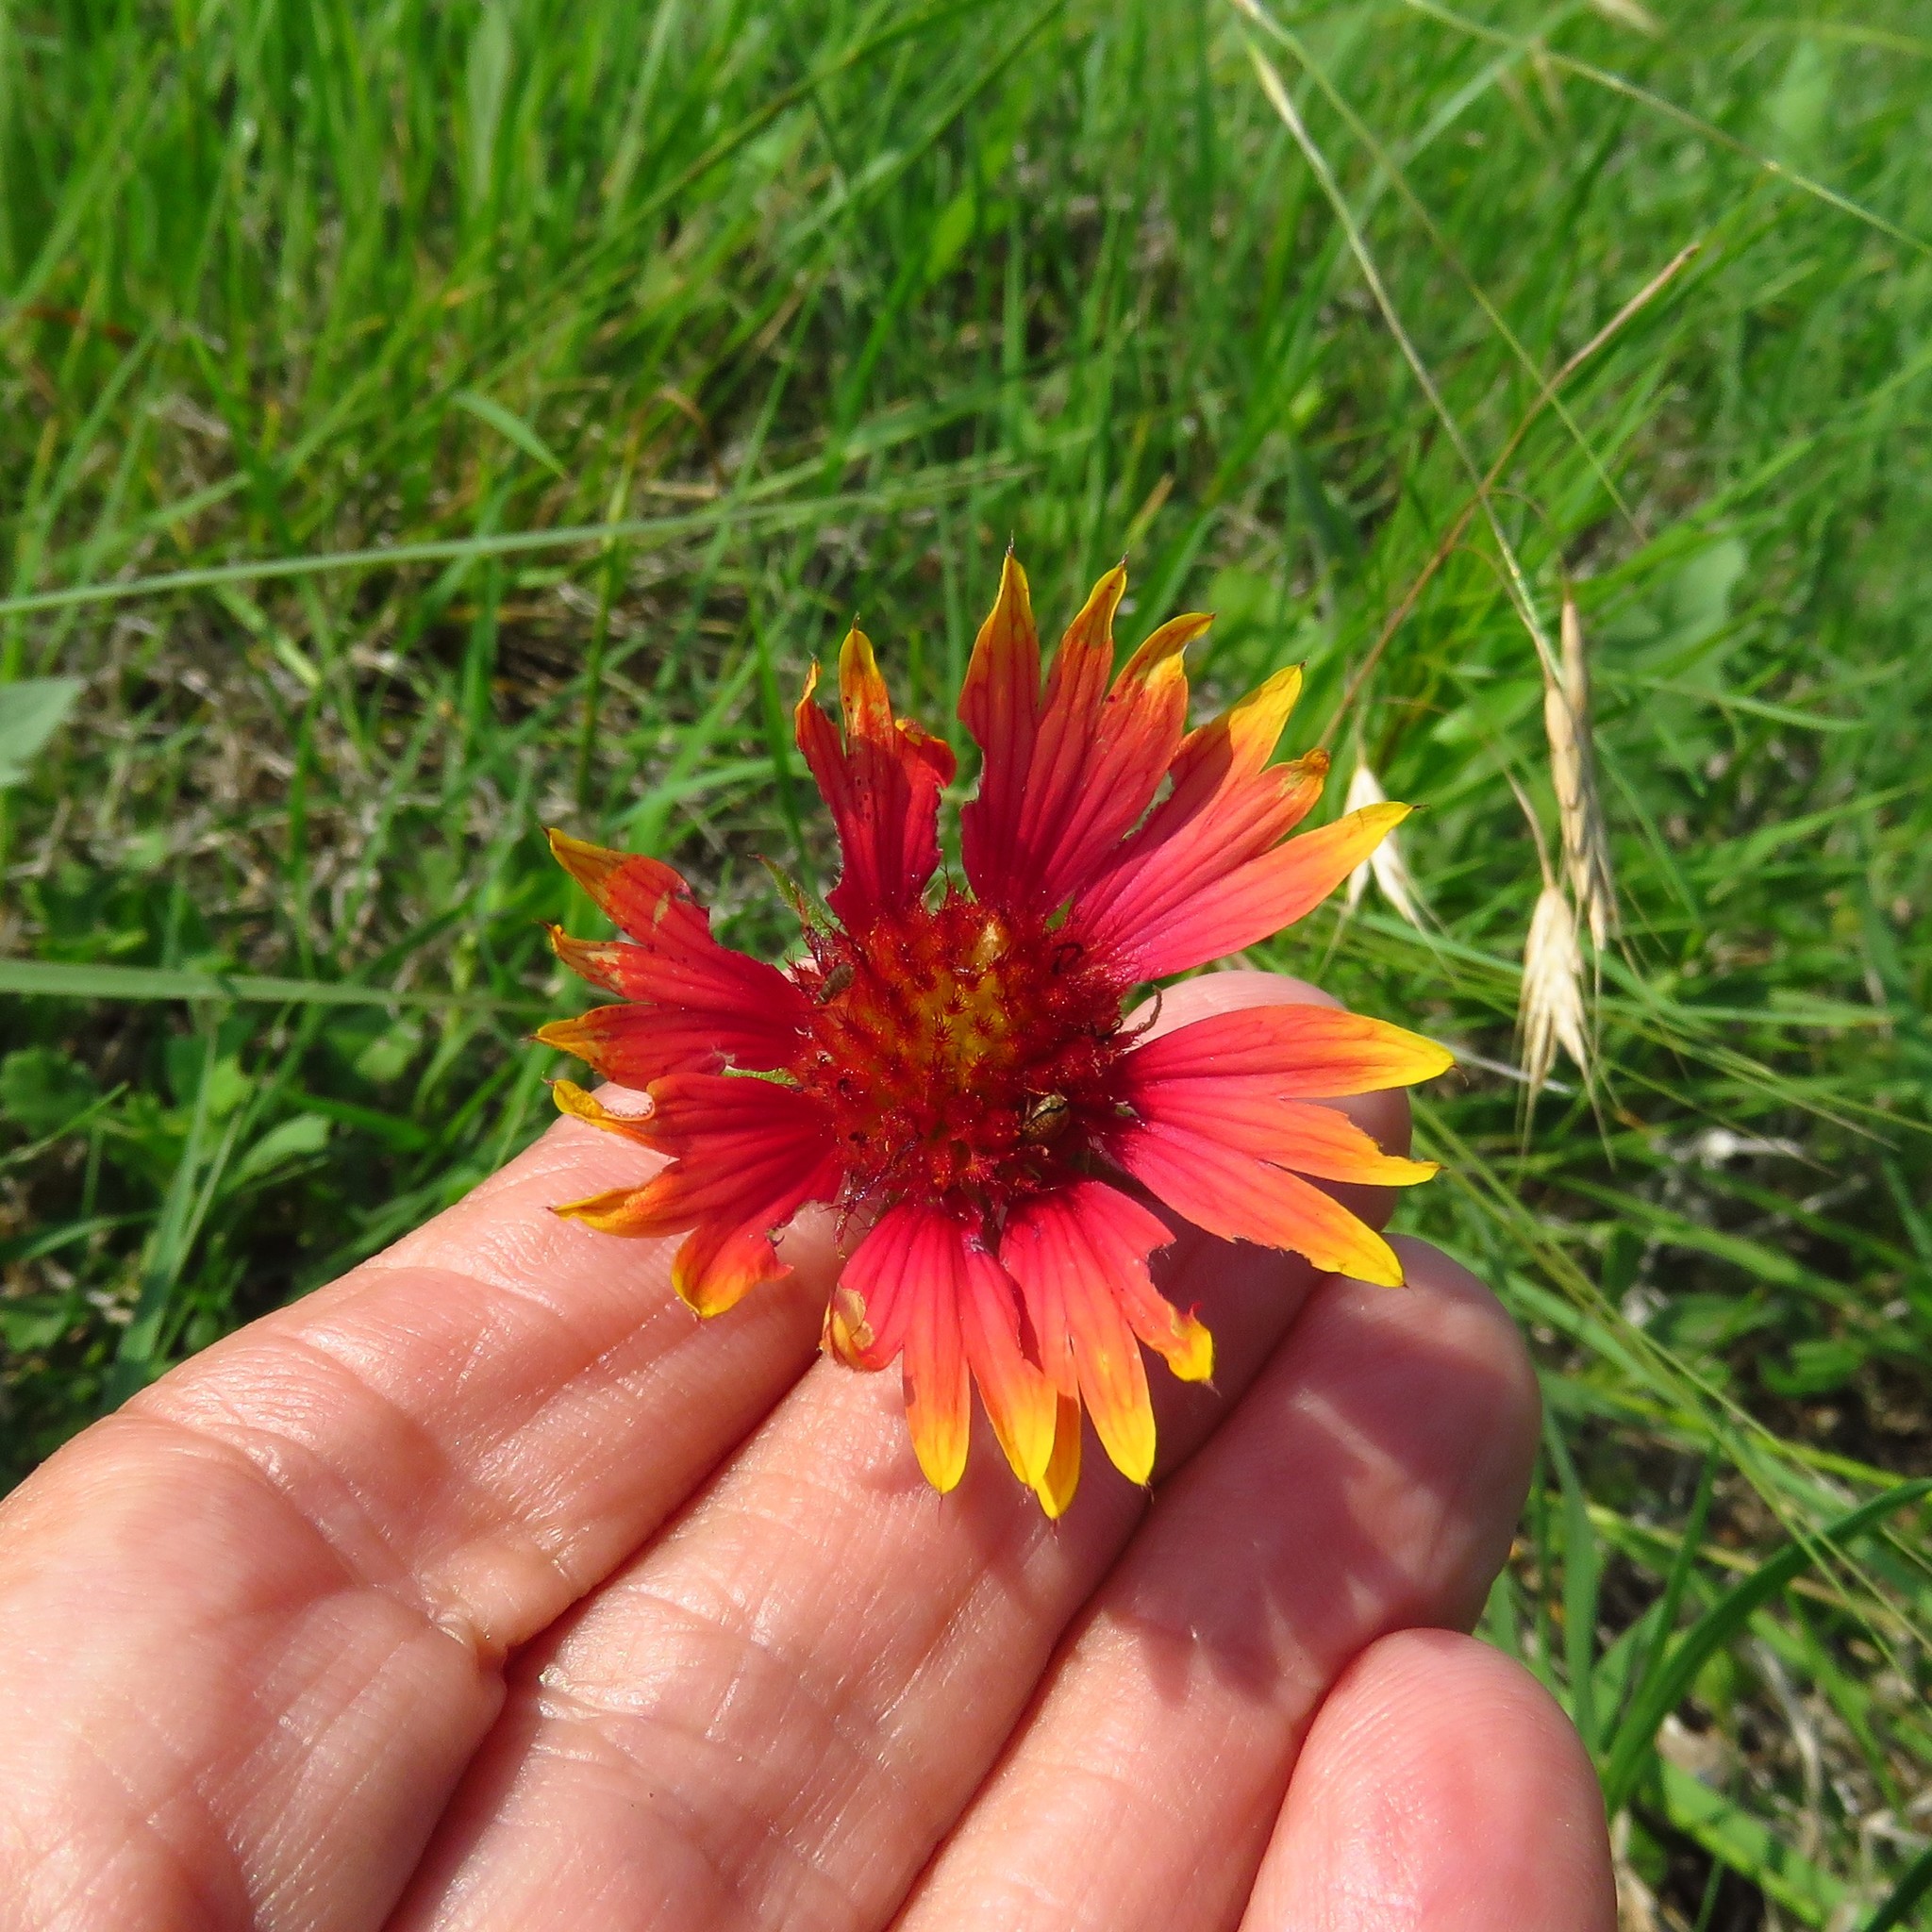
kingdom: Plantae
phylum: Tracheophyta
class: Magnoliopsida
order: Asterales
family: Asteraceae
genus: Gaillardia
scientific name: Gaillardia pulchella
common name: Firewheel
